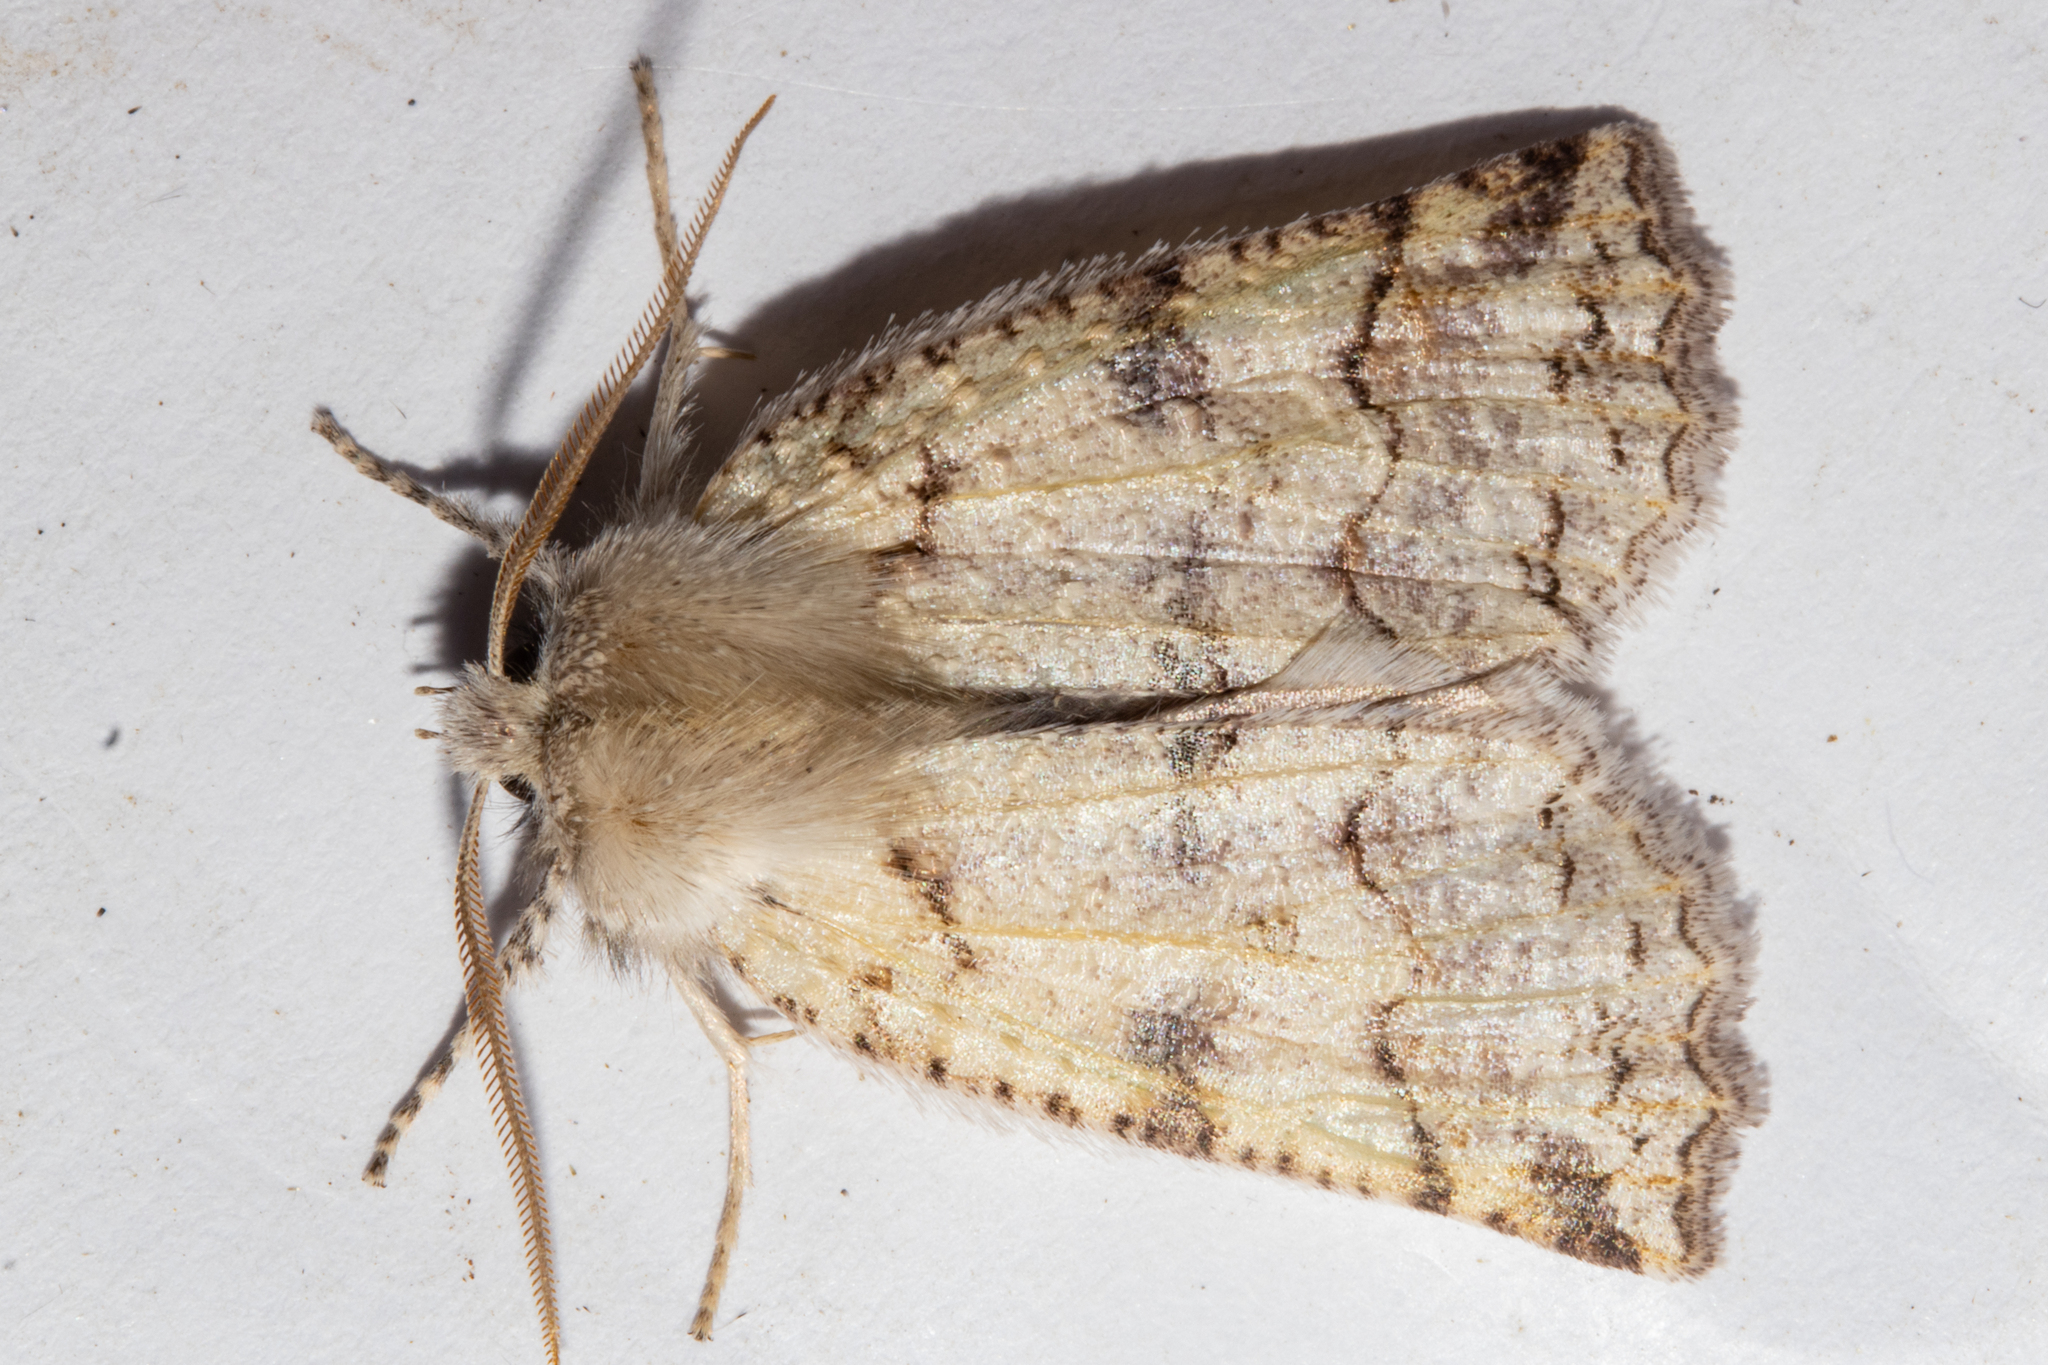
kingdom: Animalia
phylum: Arthropoda
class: Insecta
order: Lepidoptera
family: Geometridae
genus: Declana
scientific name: Declana floccosa
